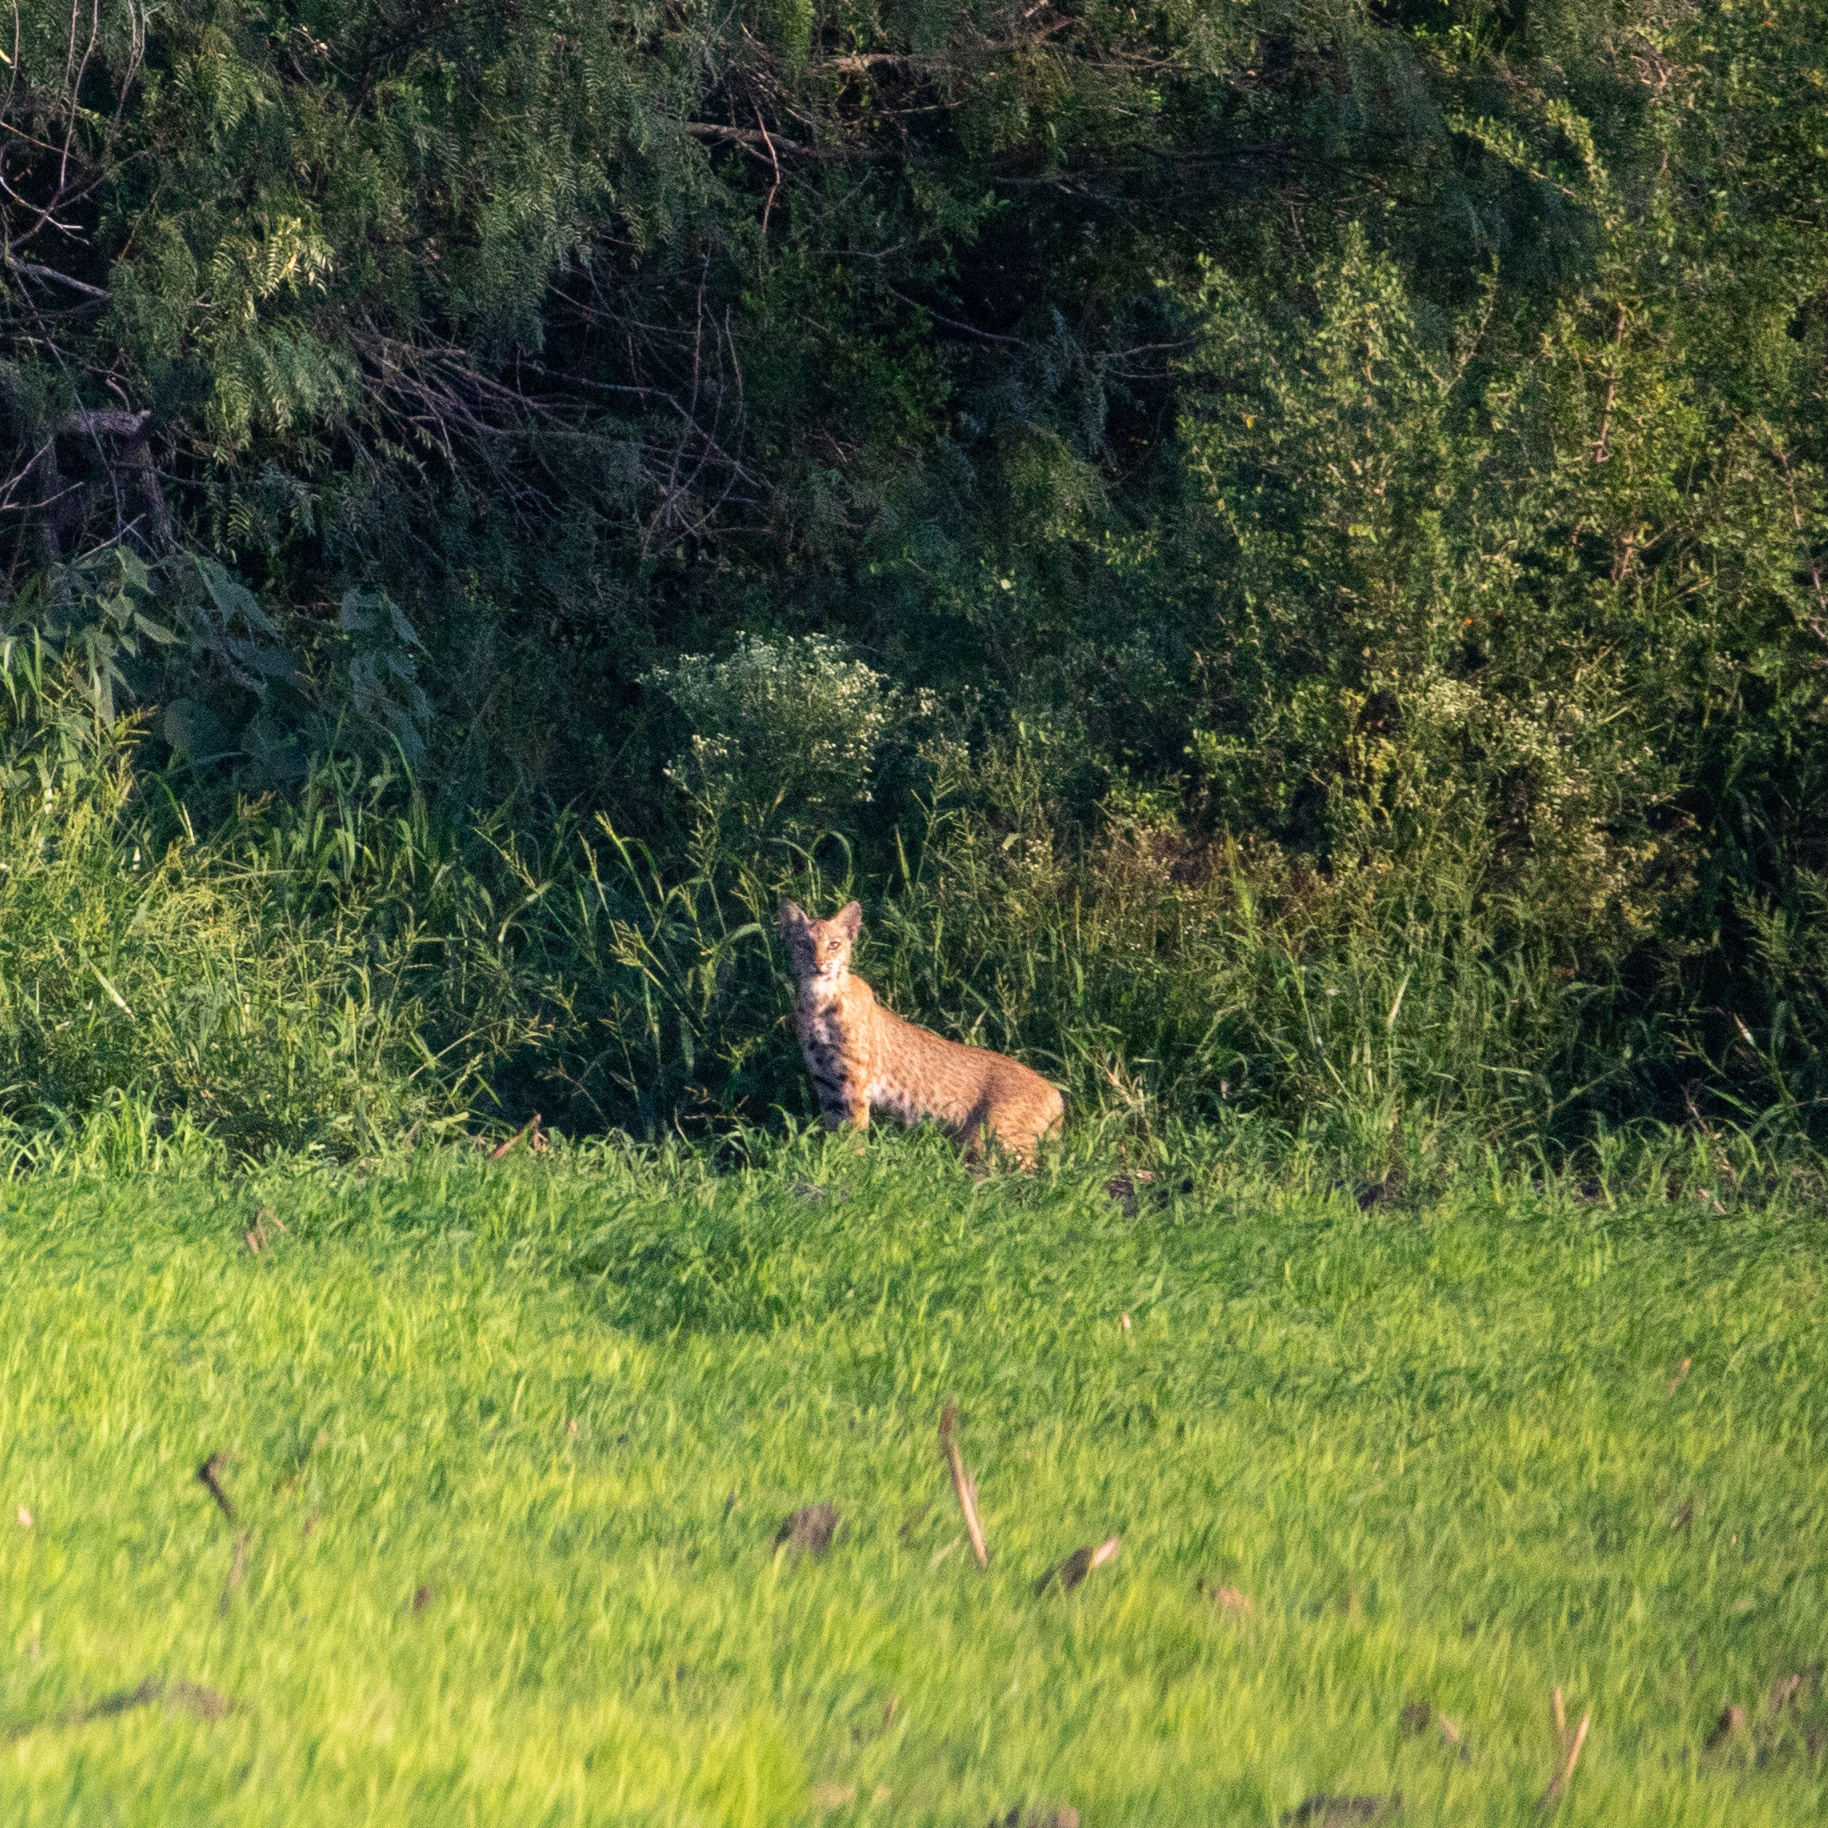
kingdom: Animalia
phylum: Chordata
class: Mammalia
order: Carnivora
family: Felidae
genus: Lynx
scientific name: Lynx rufus
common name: Bobcat
